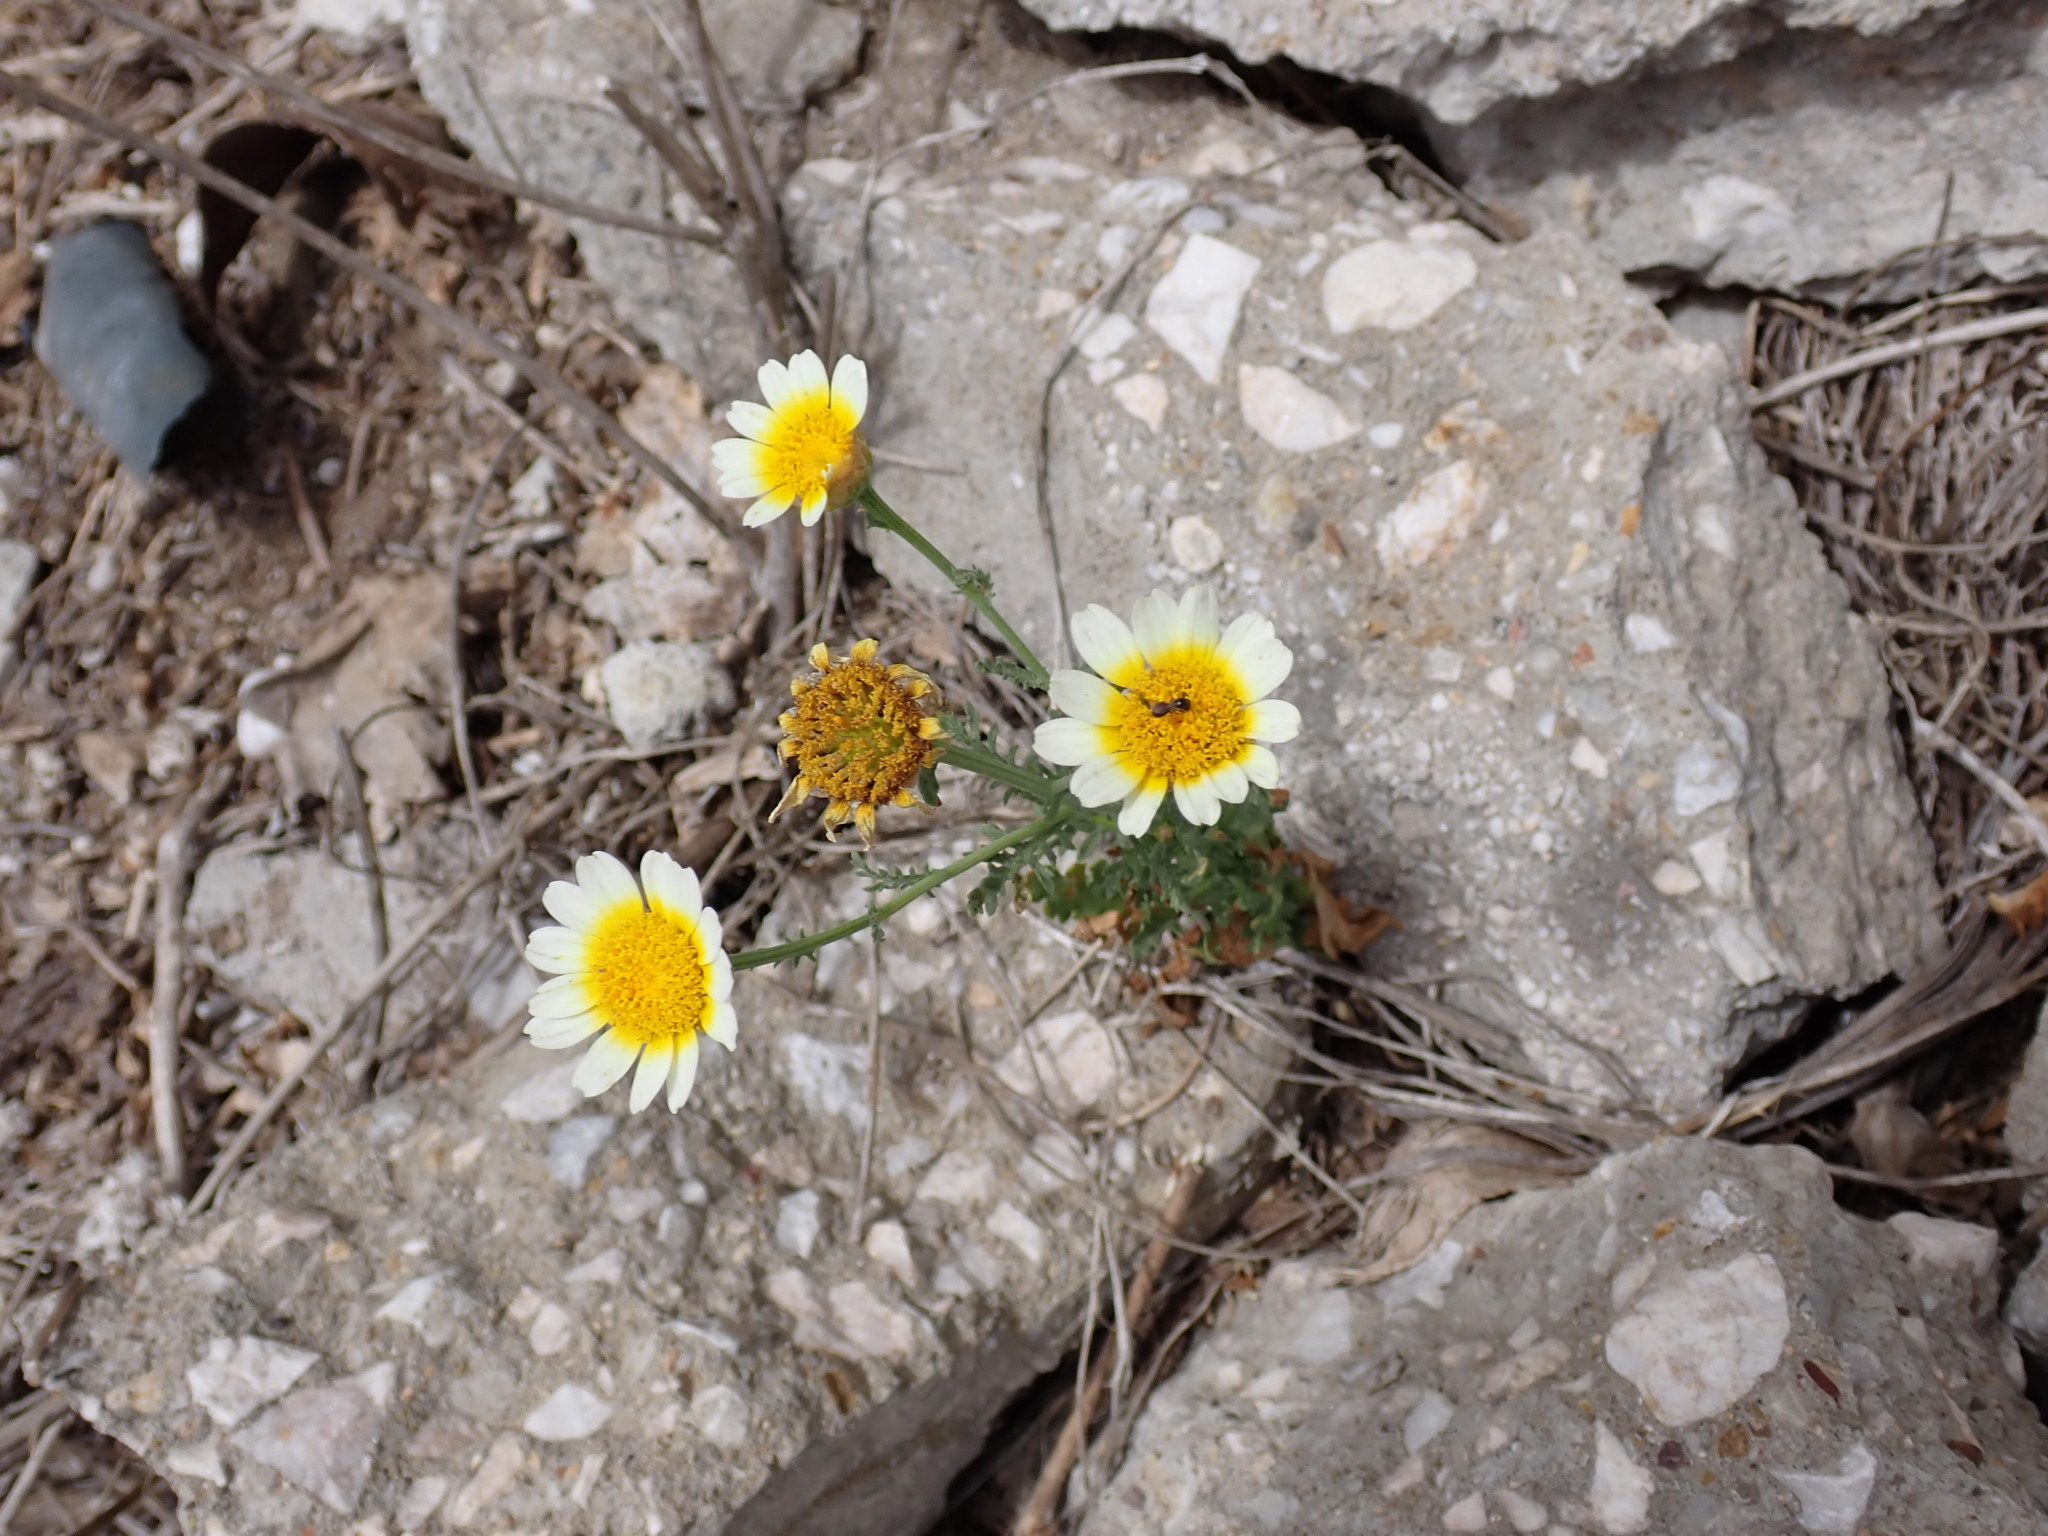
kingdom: Plantae
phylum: Tracheophyta
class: Magnoliopsida
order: Asterales
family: Asteraceae
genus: Glebionis
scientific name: Glebionis coronaria
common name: Crowndaisy
